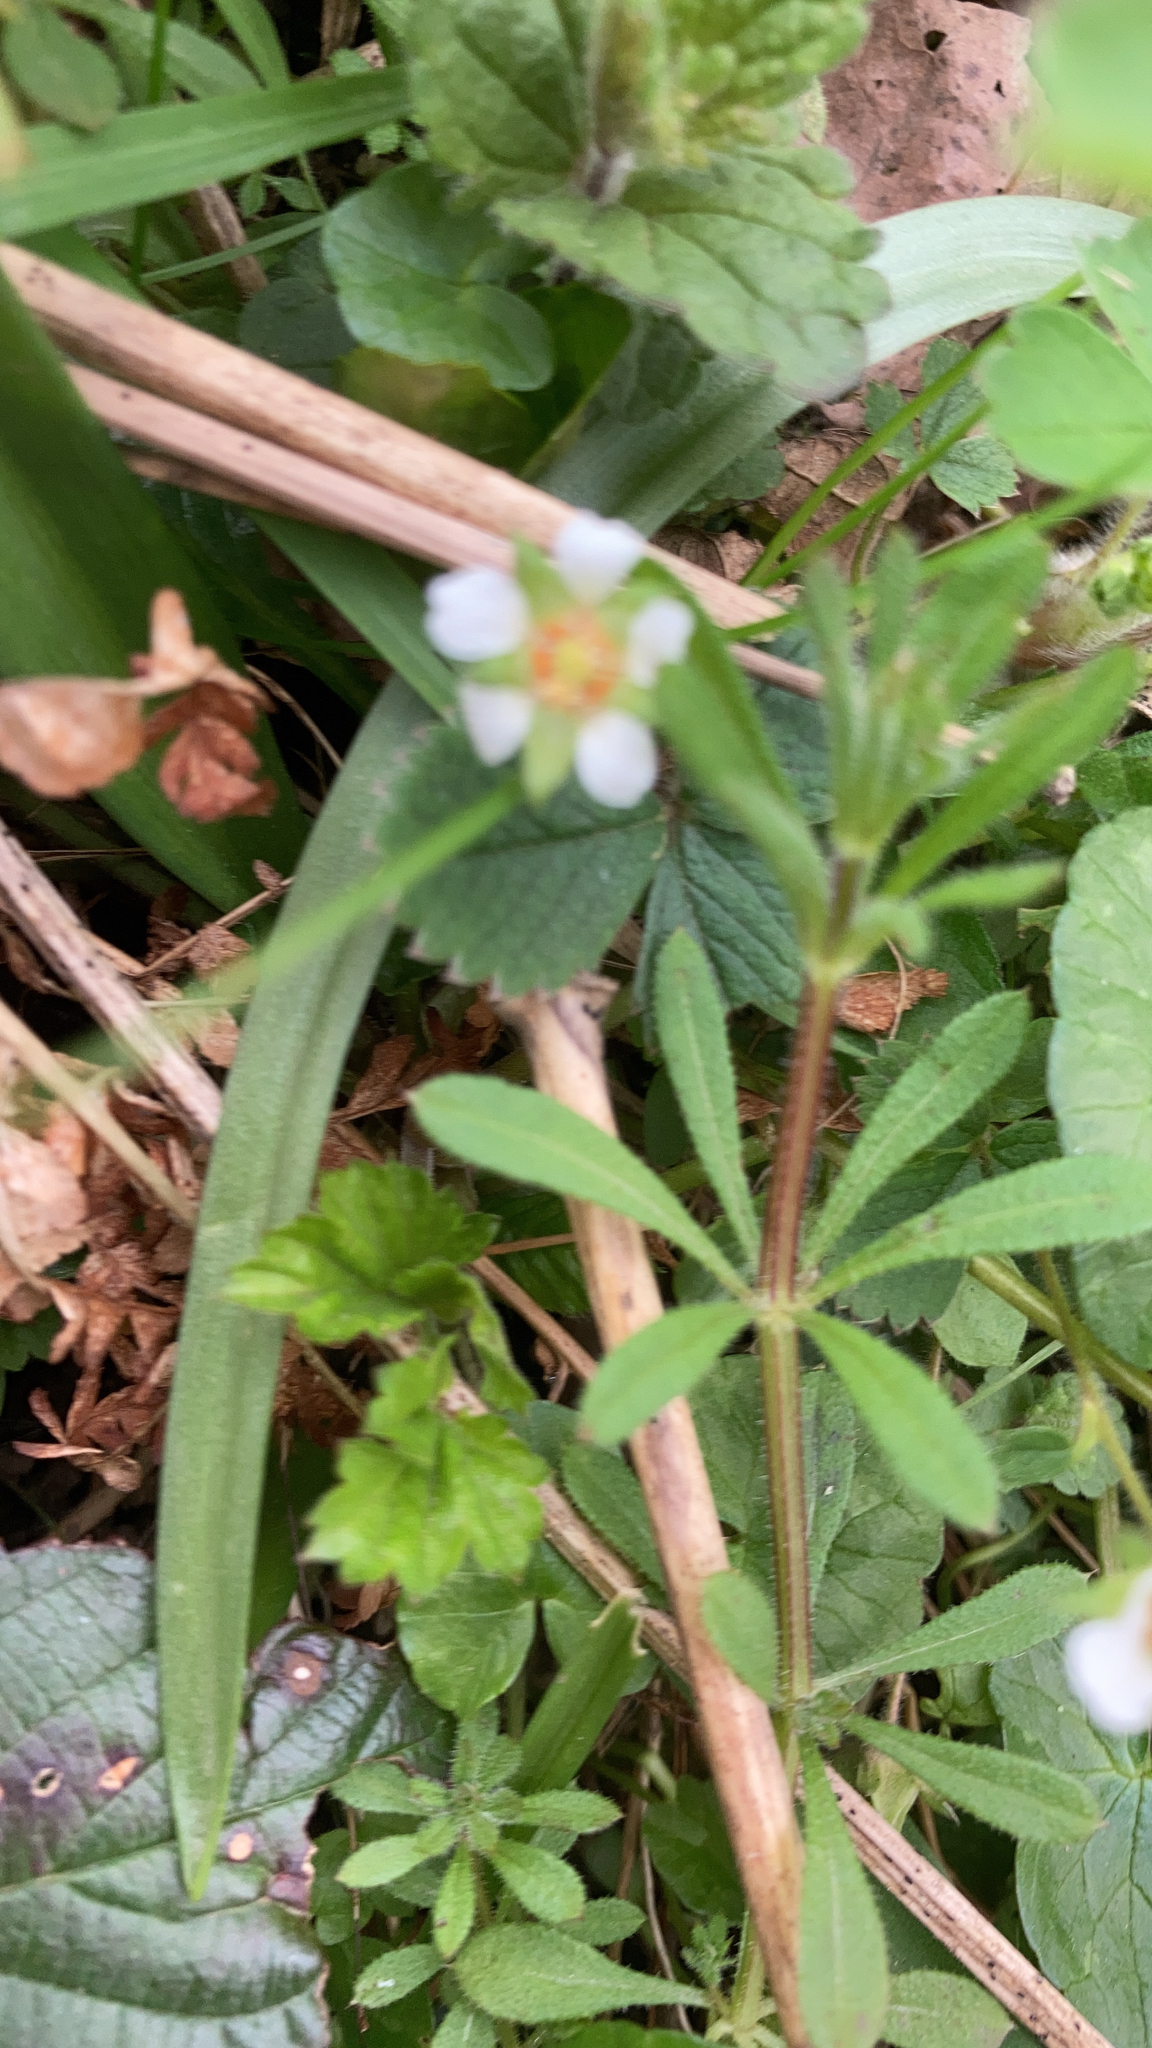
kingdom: Plantae
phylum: Tracheophyta
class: Magnoliopsida
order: Rosales
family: Rosaceae
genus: Potentilla
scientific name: Potentilla sterilis
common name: Barren strawberry
